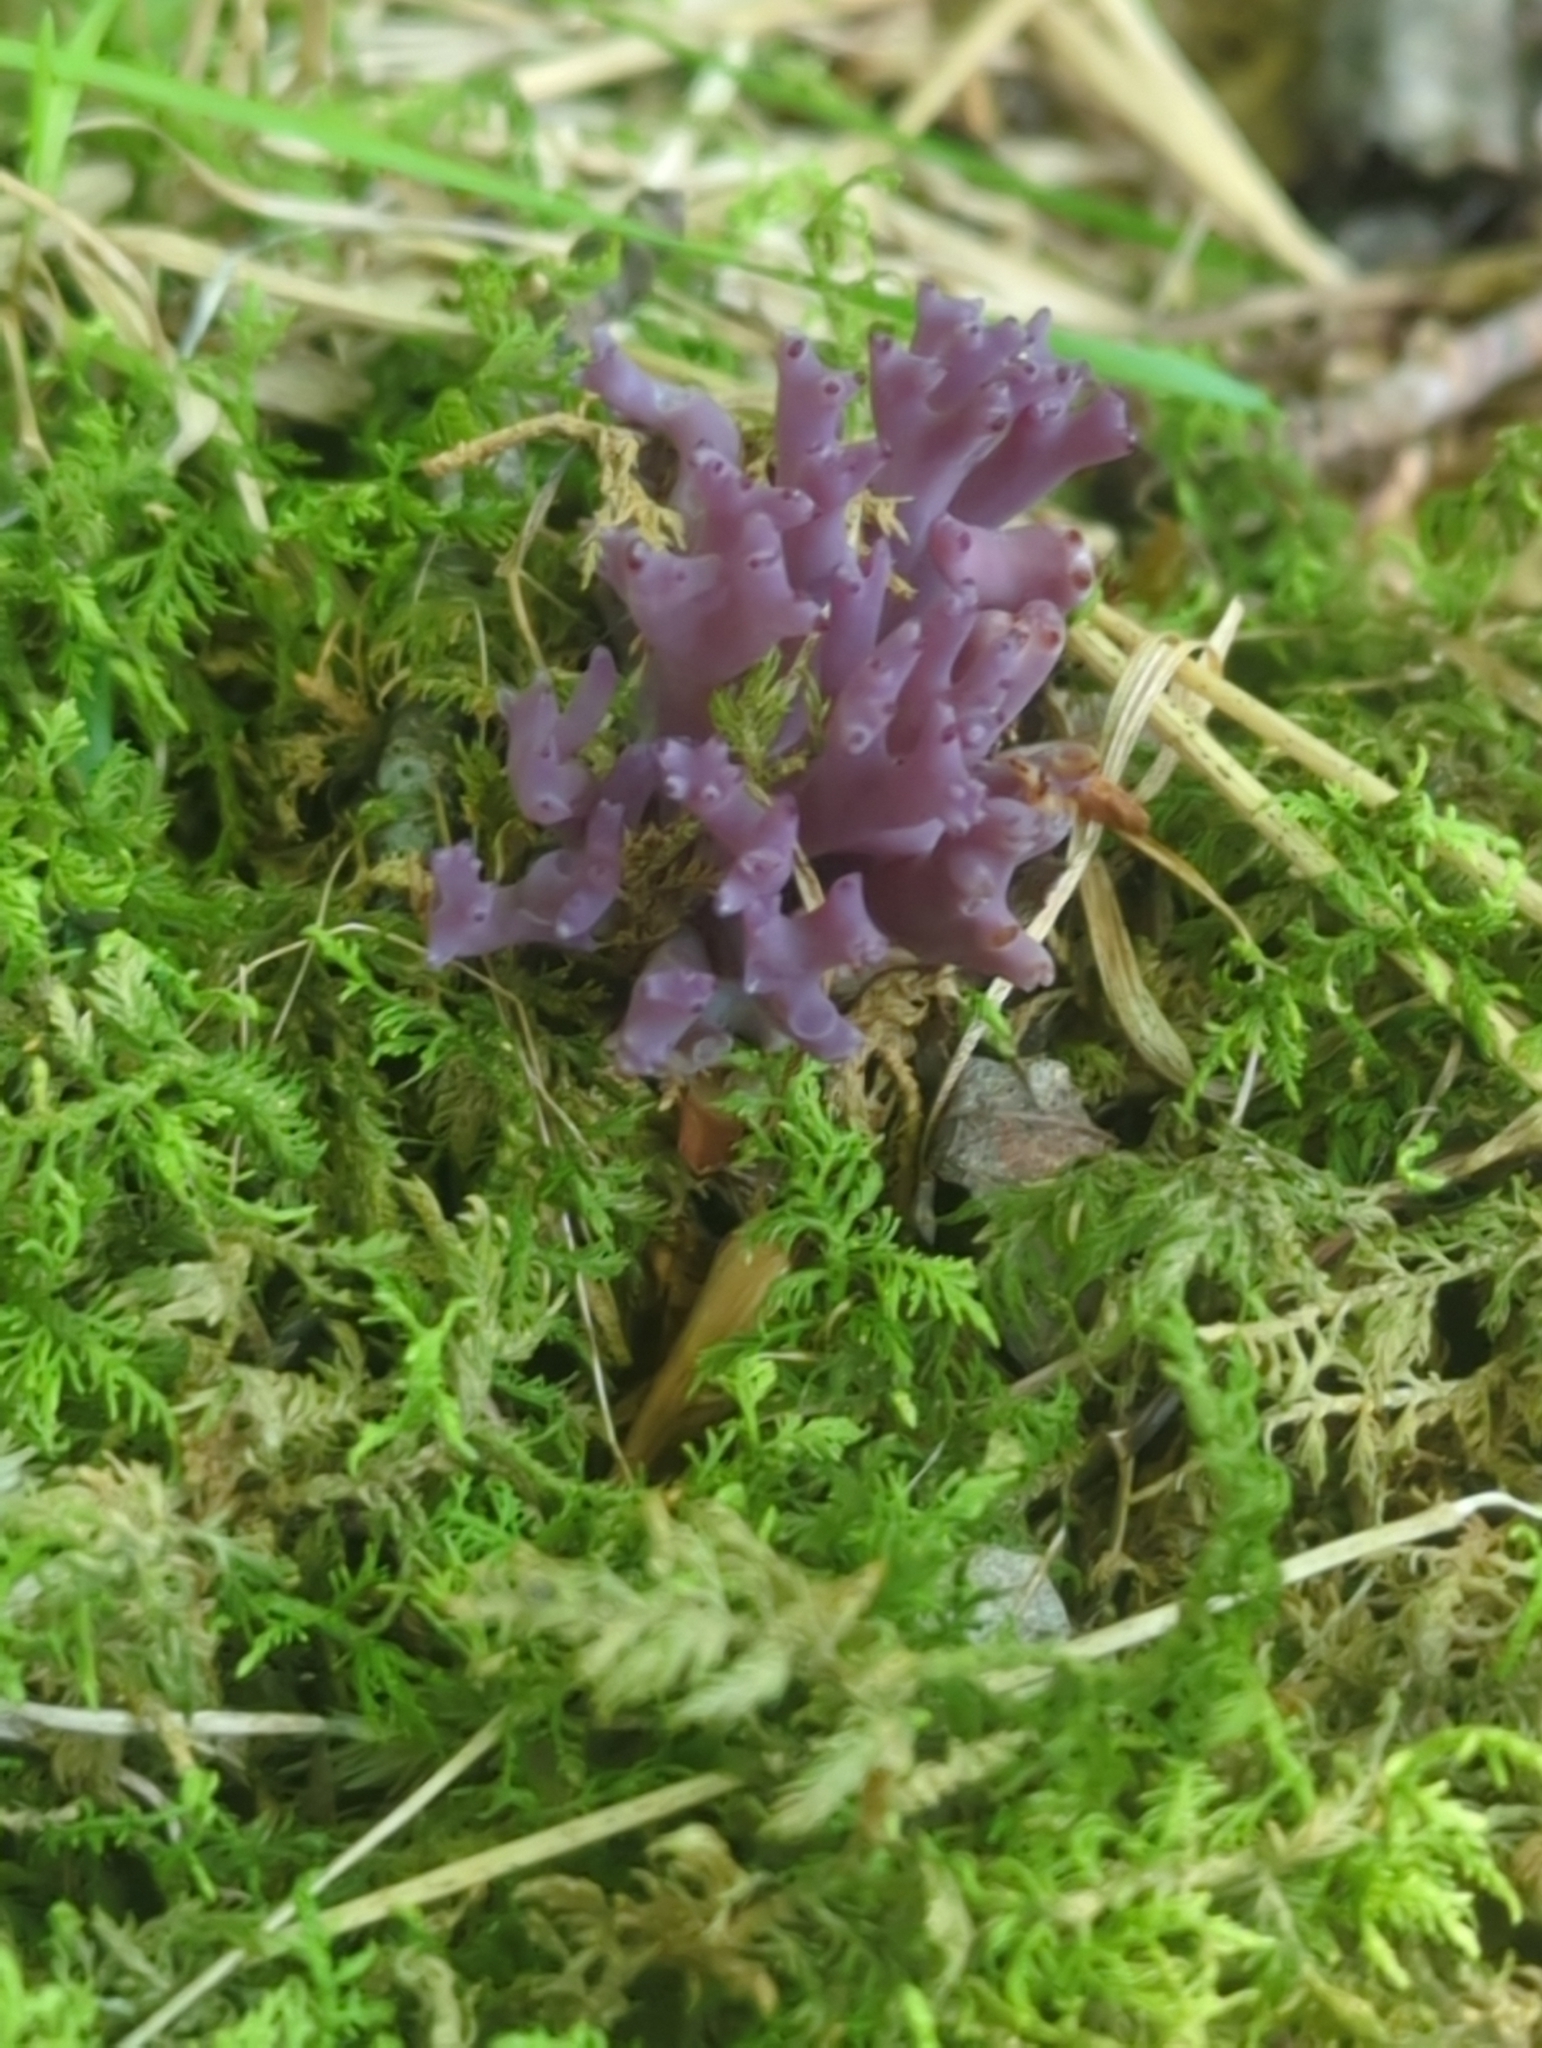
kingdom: Fungi
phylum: Basidiomycota
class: Agaricomycetes
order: Agaricales
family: Clavariaceae
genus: Clavaria
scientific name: Clavaria zollingeri
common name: Violet coral
